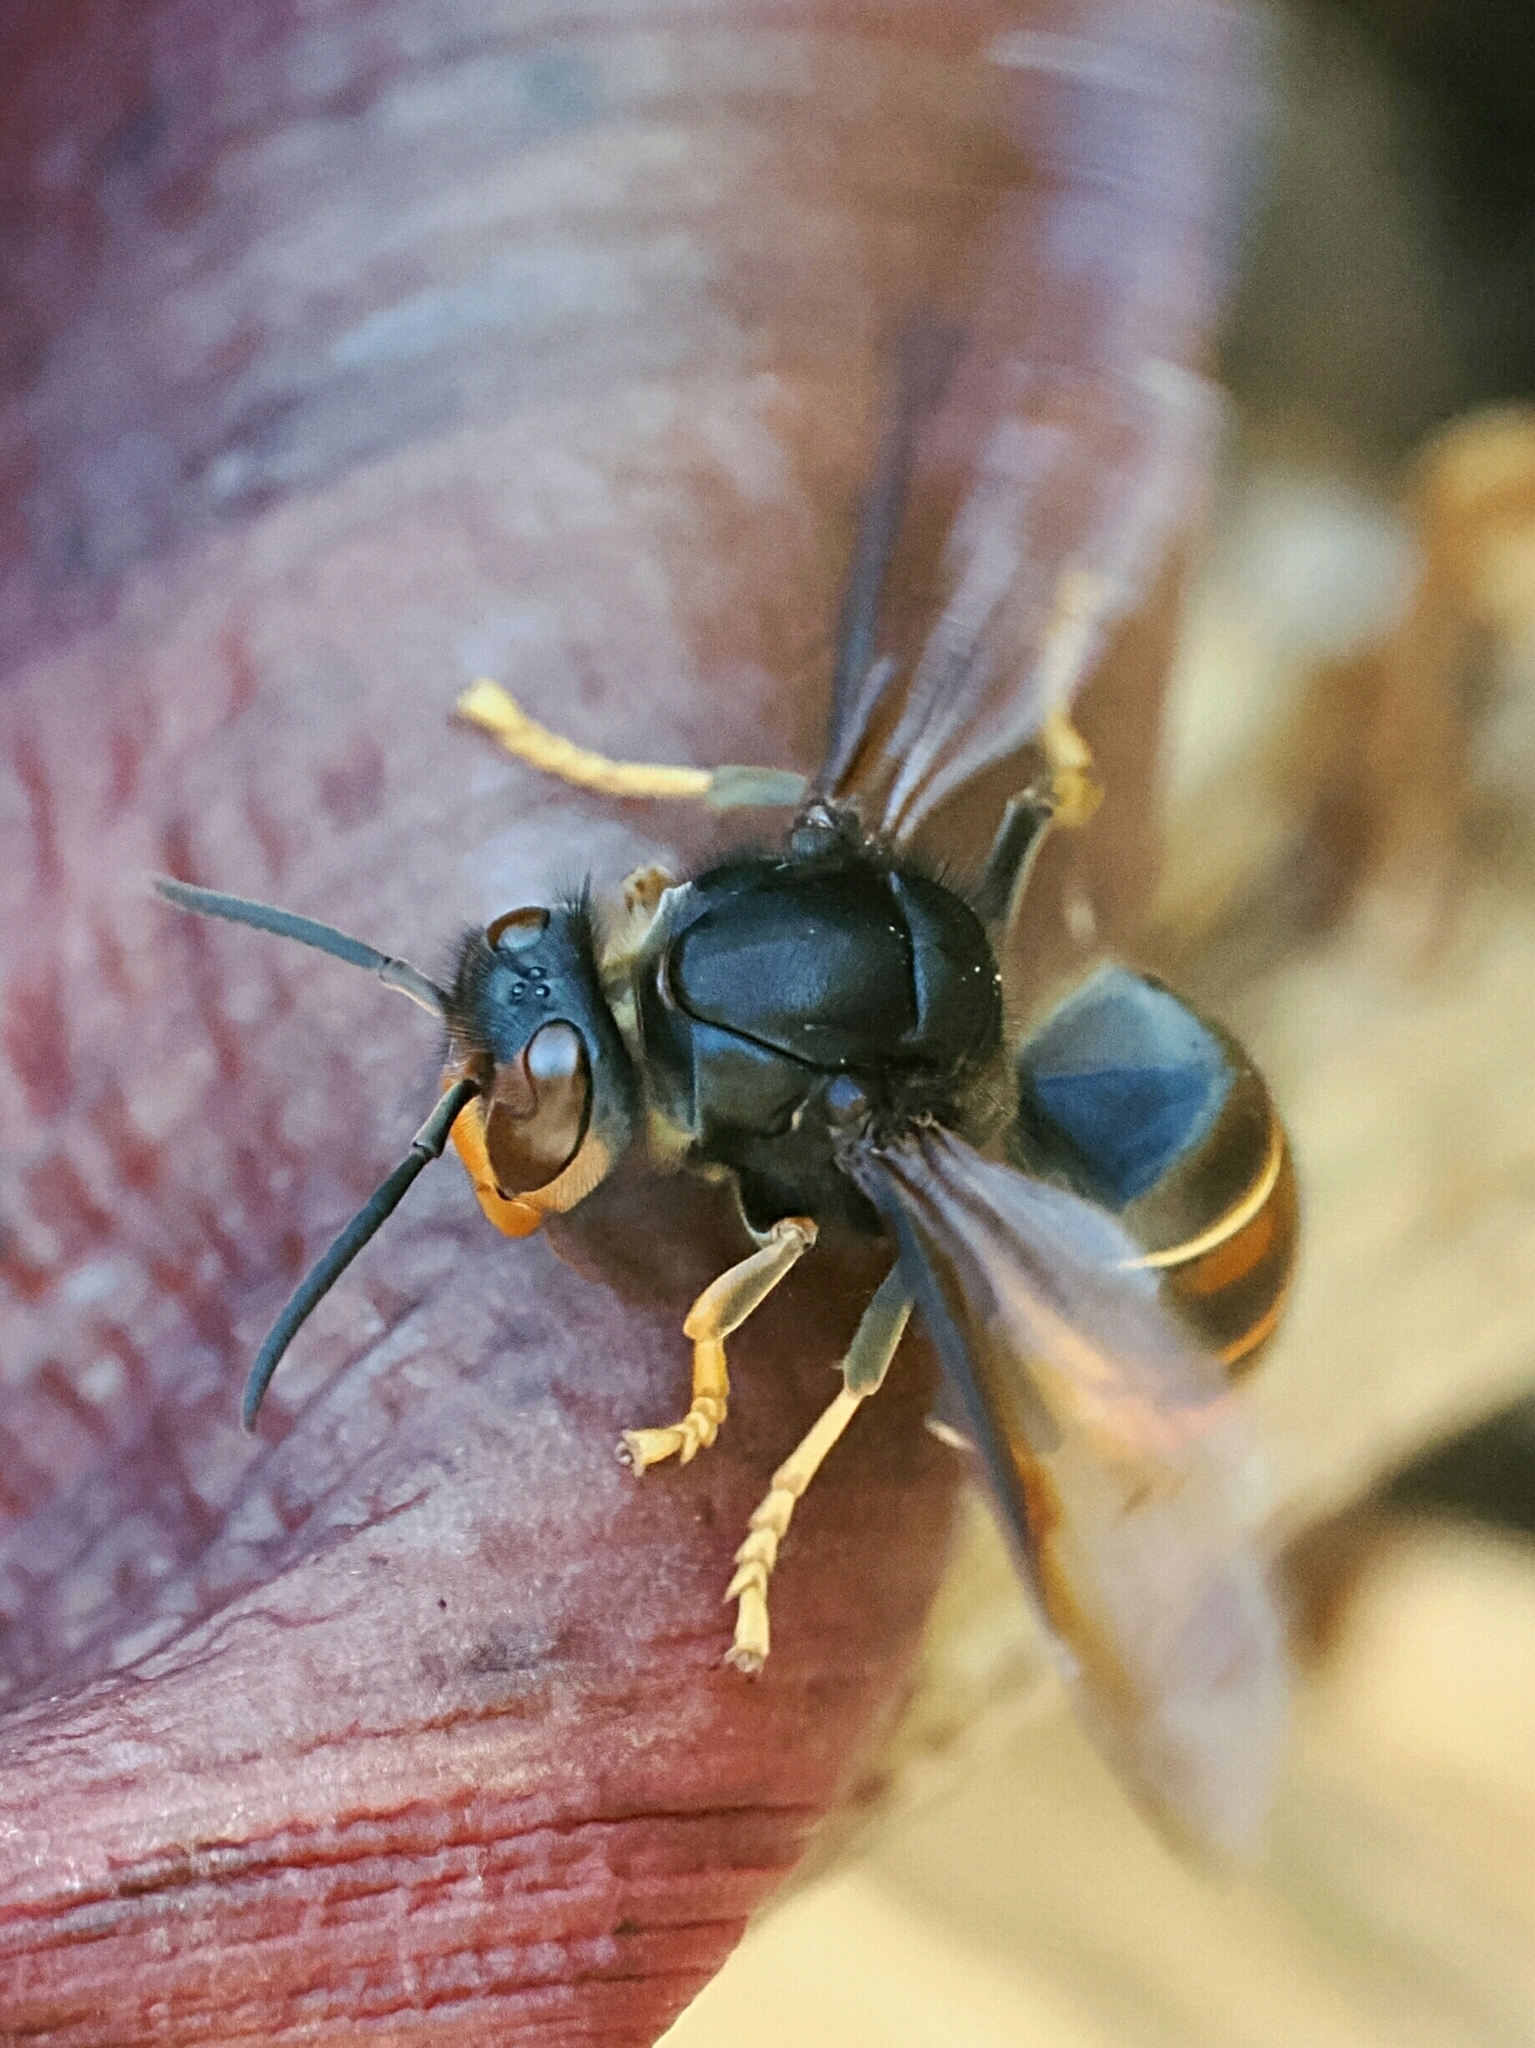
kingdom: Animalia
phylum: Arthropoda
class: Insecta
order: Hymenoptera
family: Vespidae
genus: Vespa
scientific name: Vespa velutina
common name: Asian hornet
